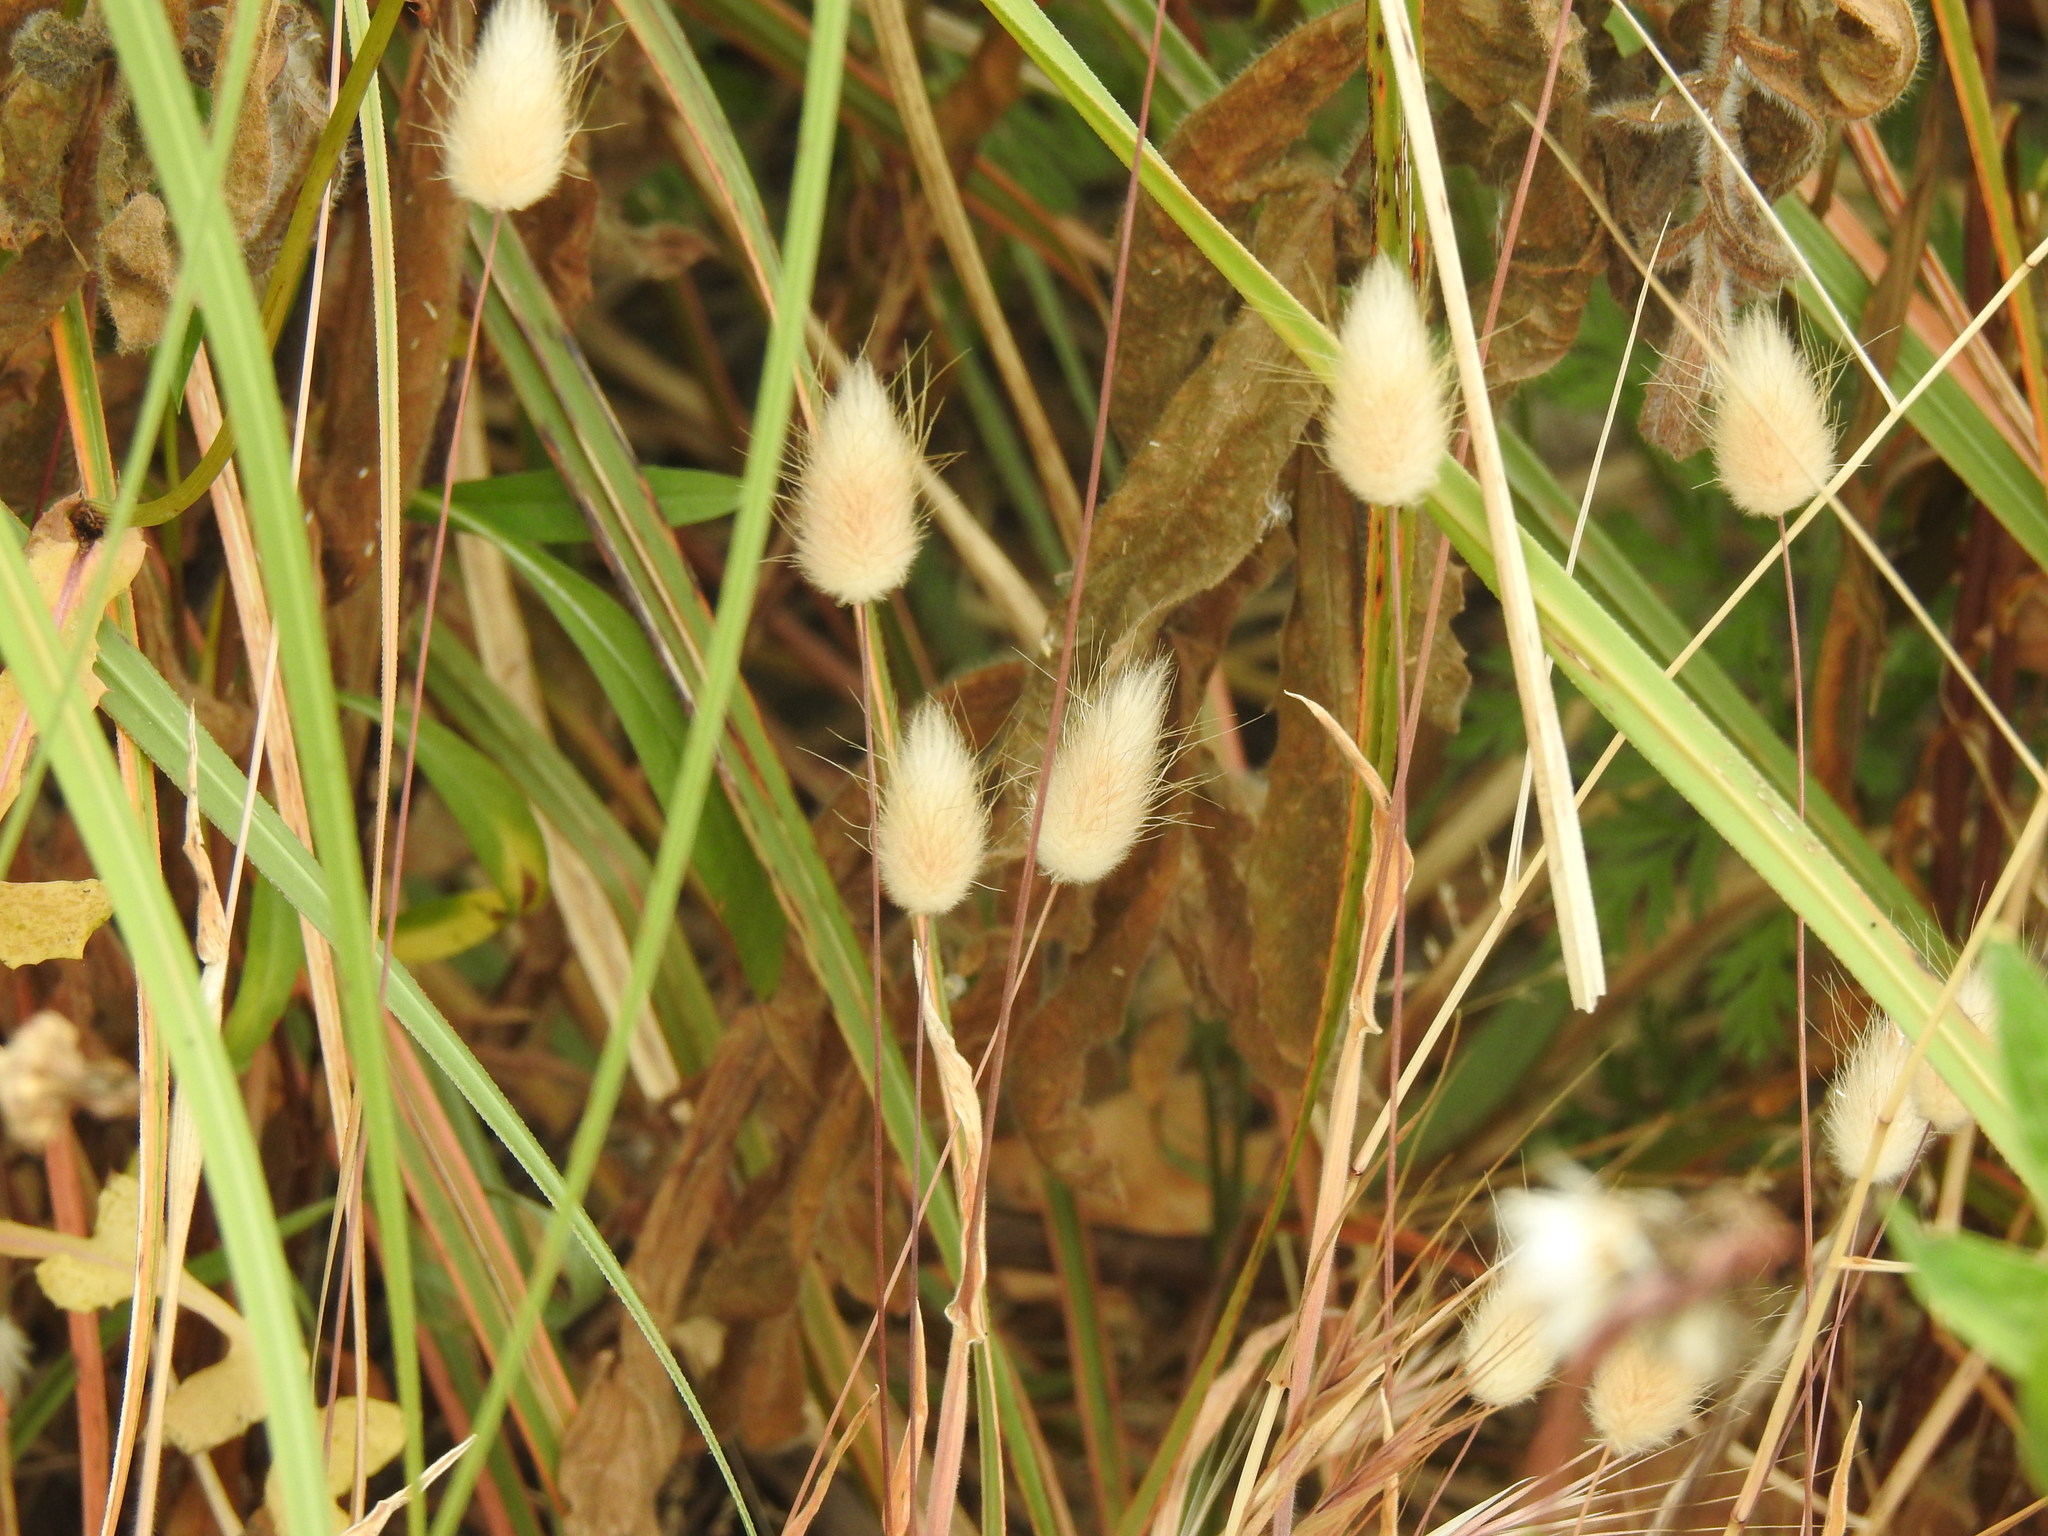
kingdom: Plantae
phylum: Tracheophyta
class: Liliopsida
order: Poales
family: Poaceae
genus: Lagurus
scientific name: Lagurus ovatus
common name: Hare's-tail
